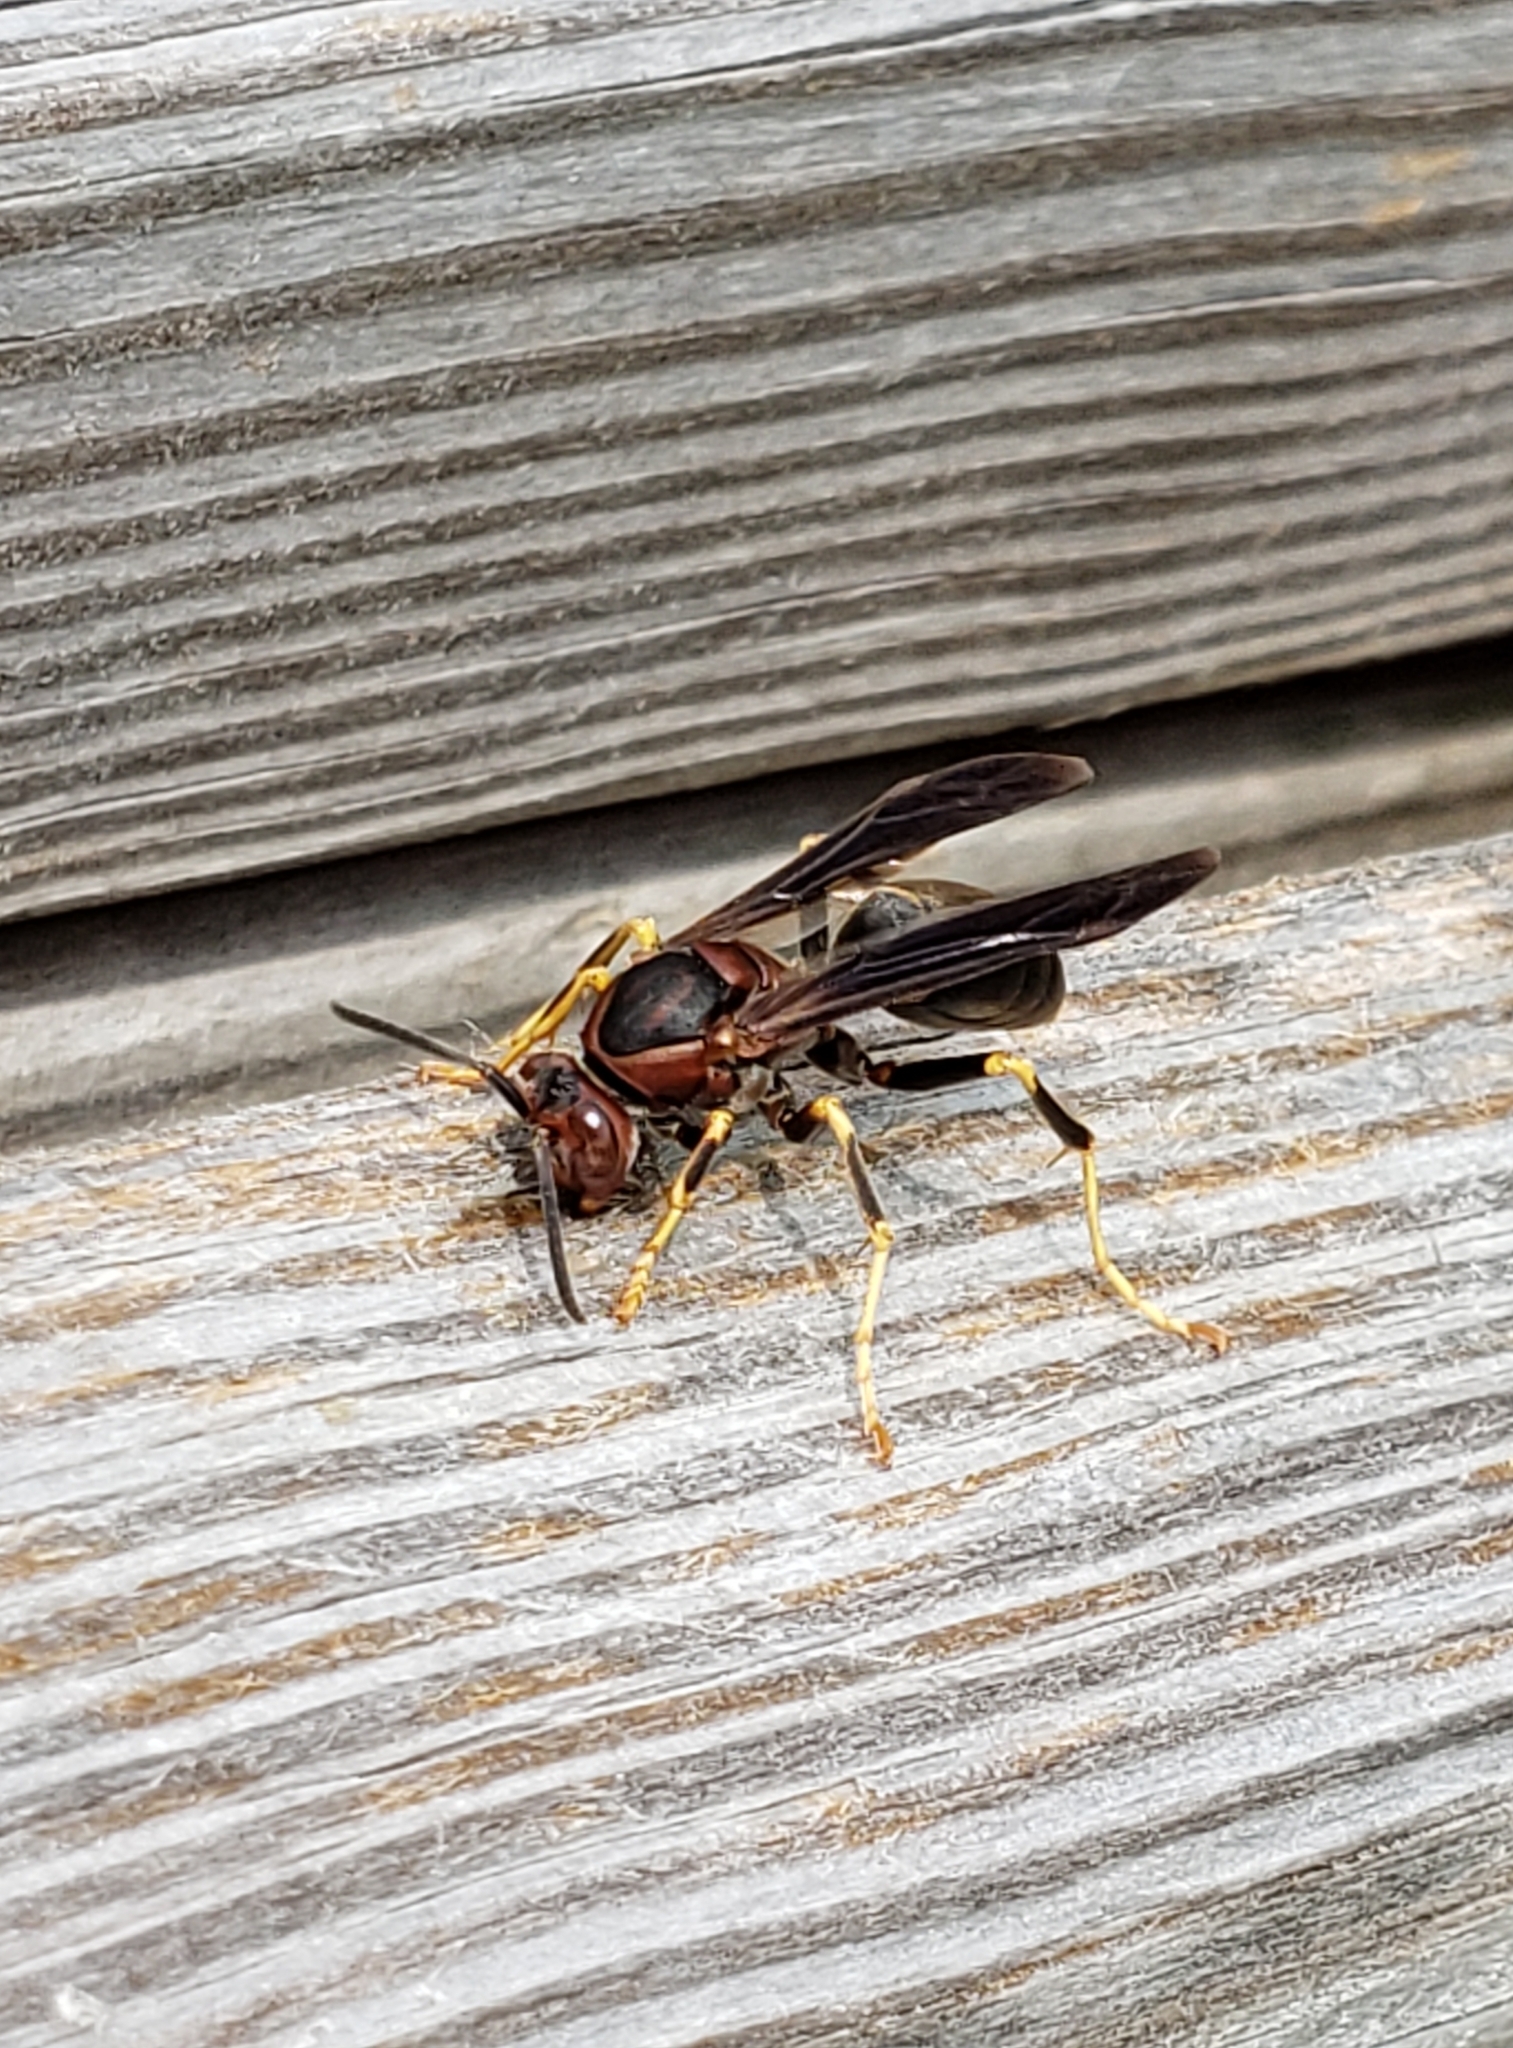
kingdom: Animalia
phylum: Arthropoda
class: Insecta
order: Hymenoptera
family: Eumenidae
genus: Polistes
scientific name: Polistes metricus
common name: Metric paper wasp
